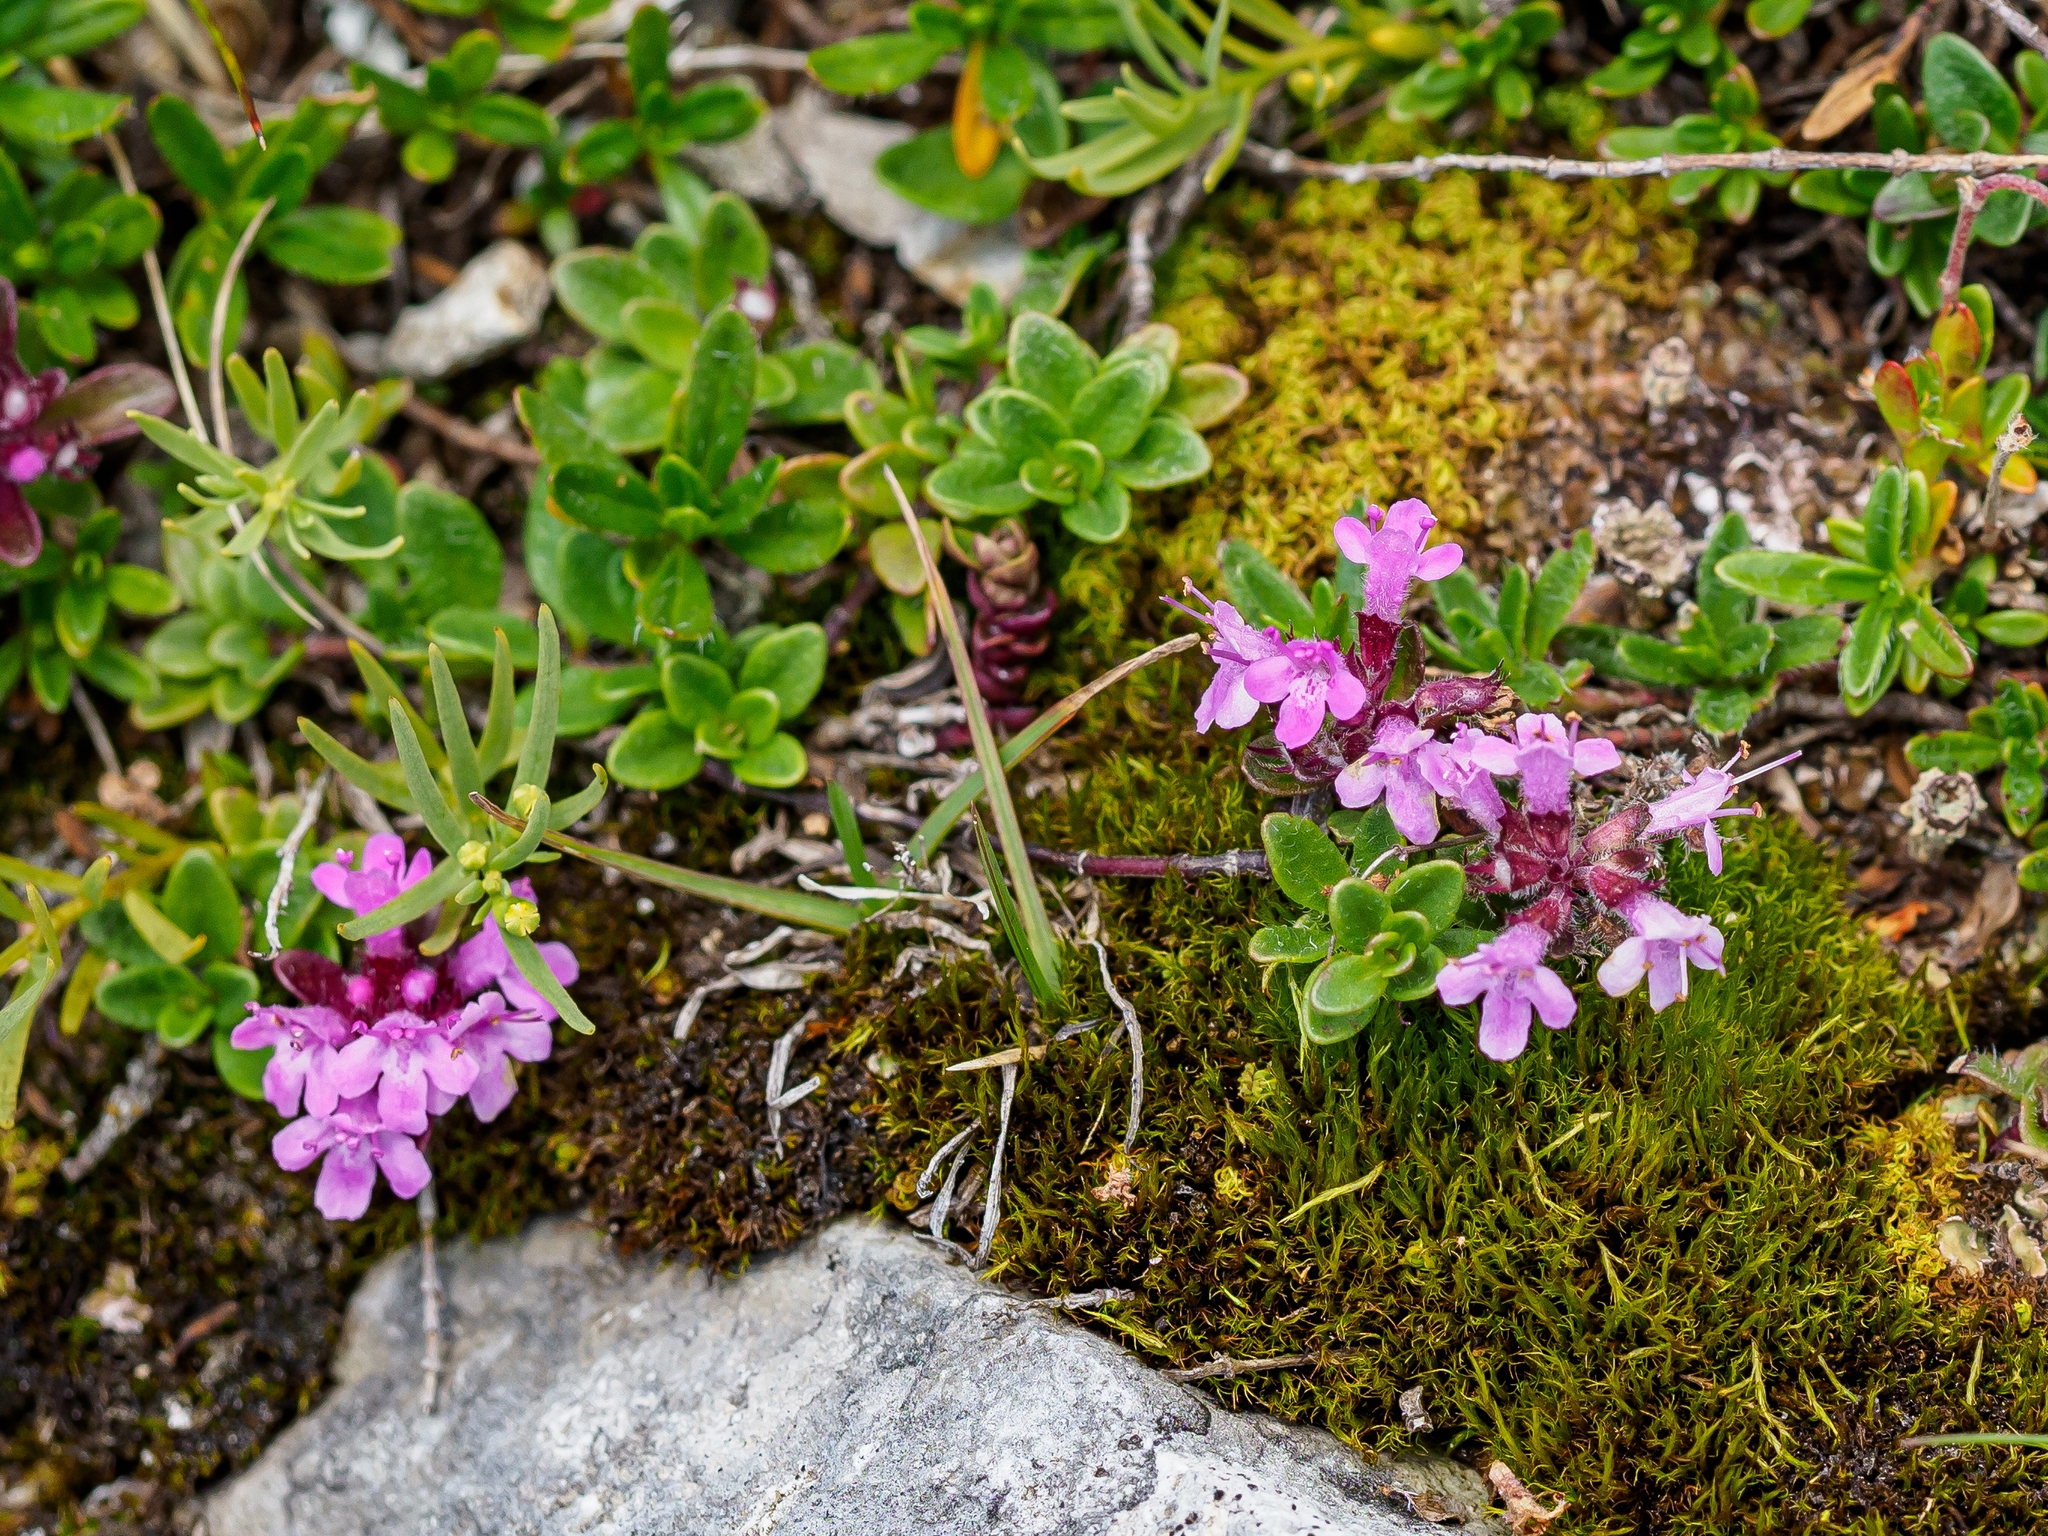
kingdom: Plantae
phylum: Tracheophyta
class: Magnoliopsida
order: Lamiales
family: Lamiaceae
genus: Thymus
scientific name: Thymus praecox
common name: Wild thyme
